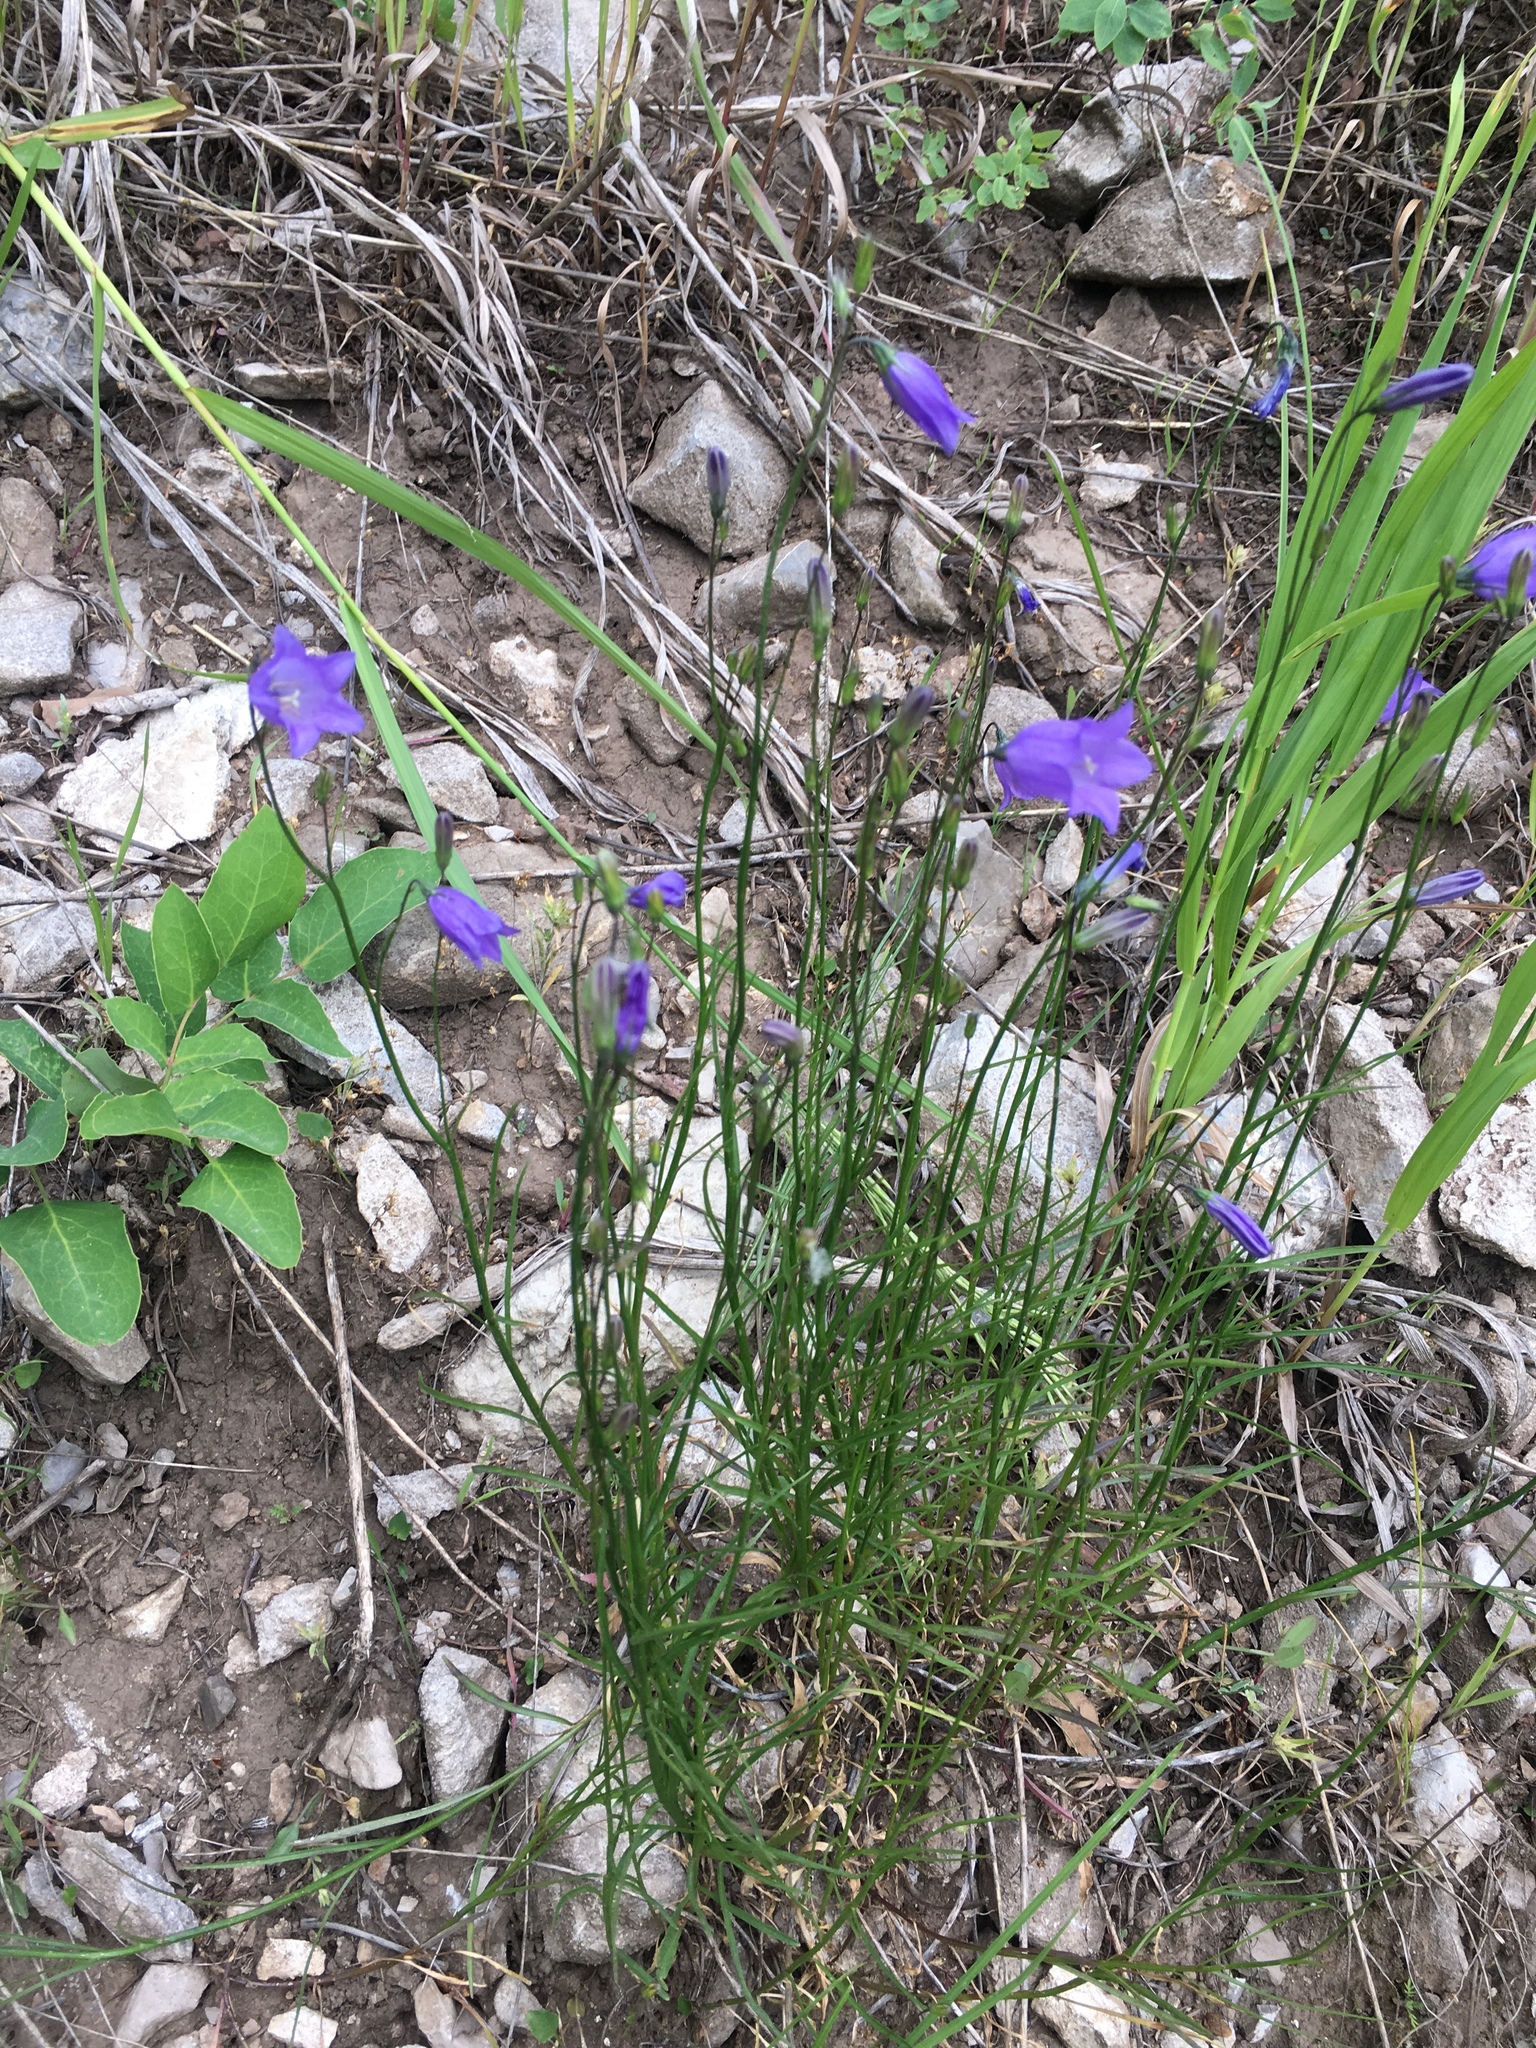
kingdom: Plantae
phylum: Tracheophyta
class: Magnoliopsida
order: Asterales
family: Campanulaceae
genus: Campanula
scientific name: Campanula petiolata
